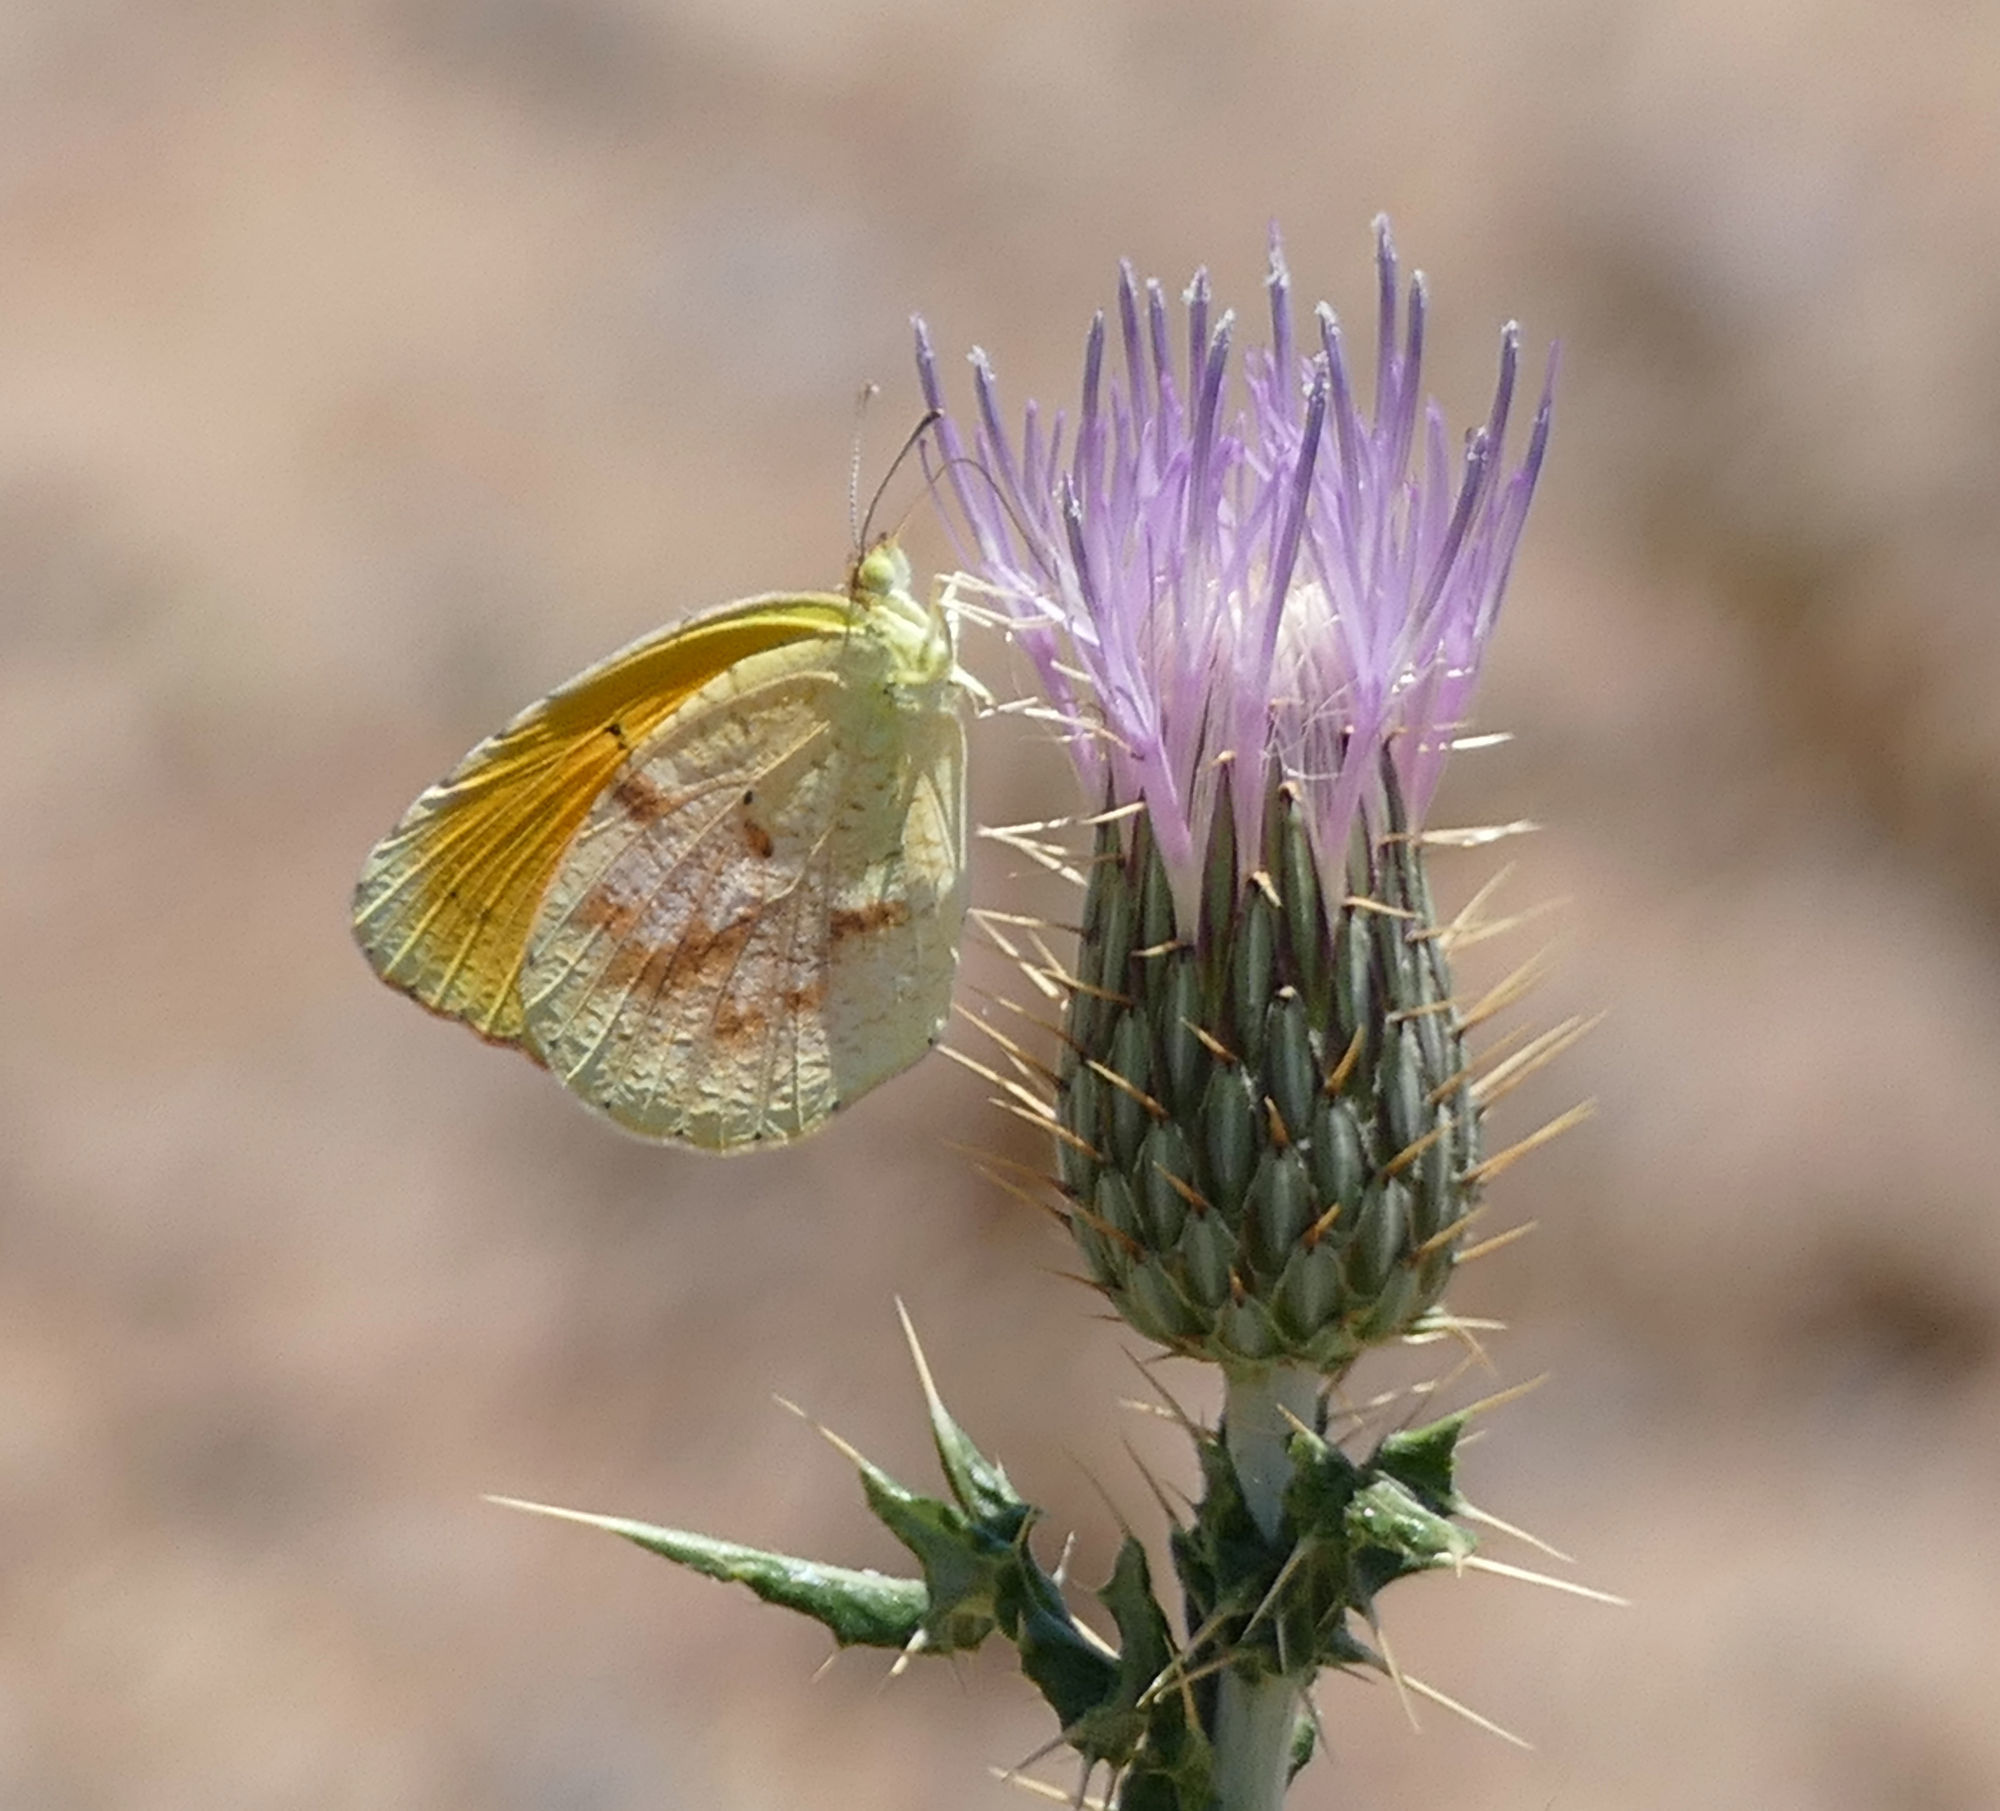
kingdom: Animalia
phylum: Arthropoda
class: Insecta
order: Lepidoptera
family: Pieridae
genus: Abaeis
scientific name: Abaeis nicippe
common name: Sleepy orange
